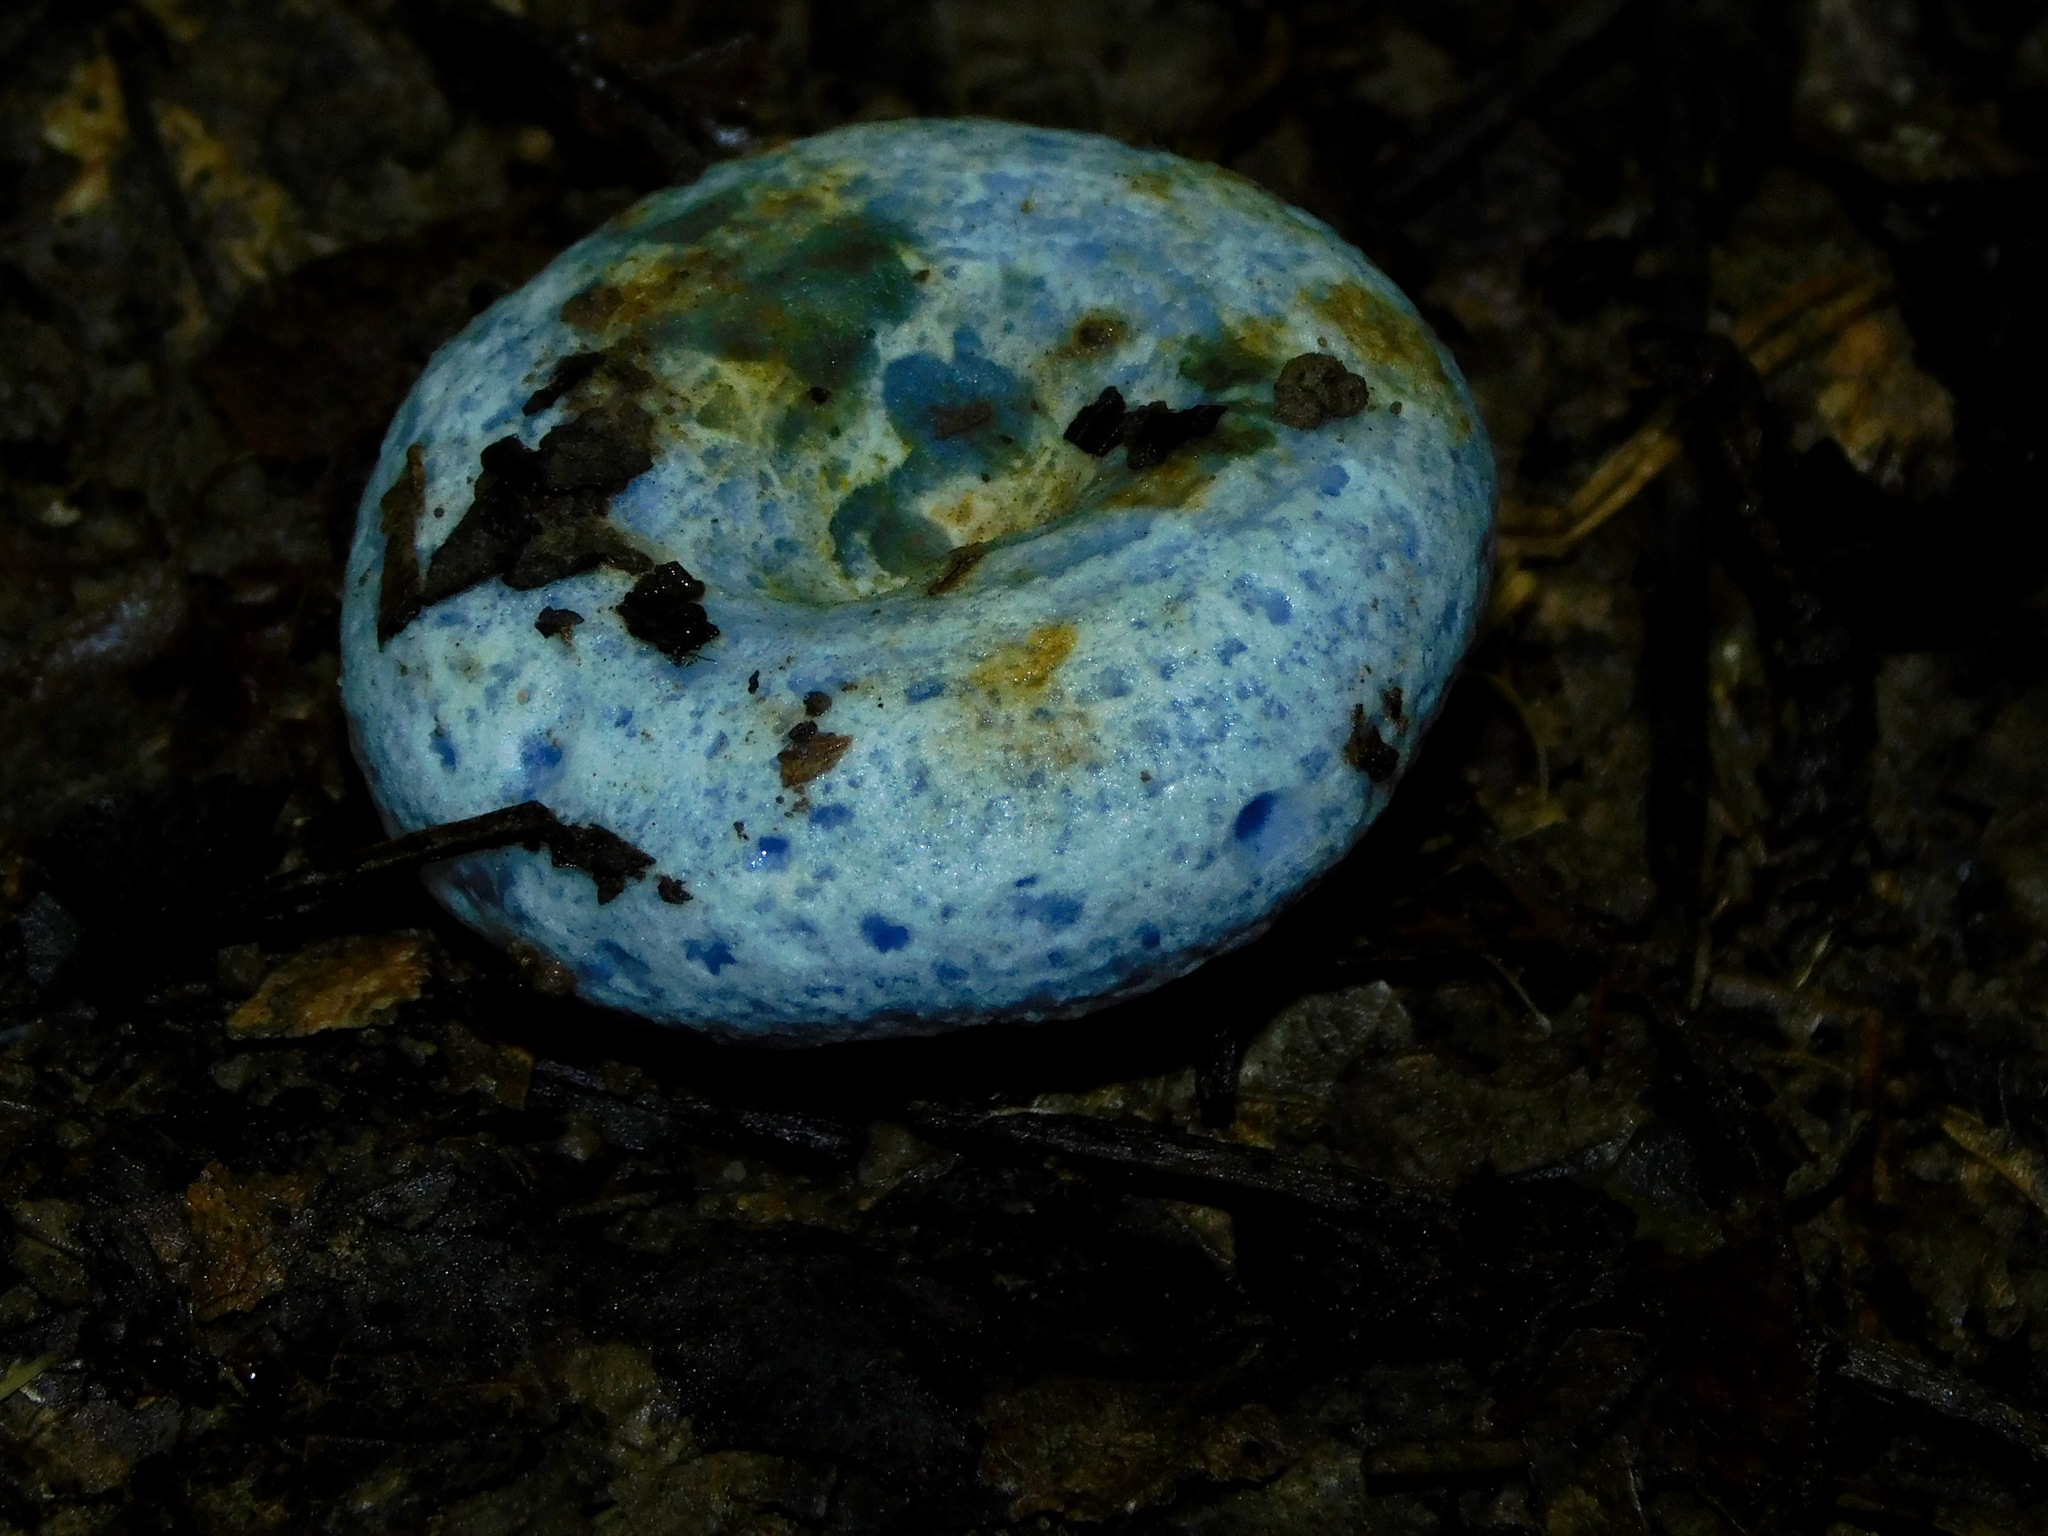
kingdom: Fungi
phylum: Basidiomycota
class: Agaricomycetes
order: Russulales
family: Russulaceae
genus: Lactarius
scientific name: Lactarius indigo
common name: Indigo milk cap
